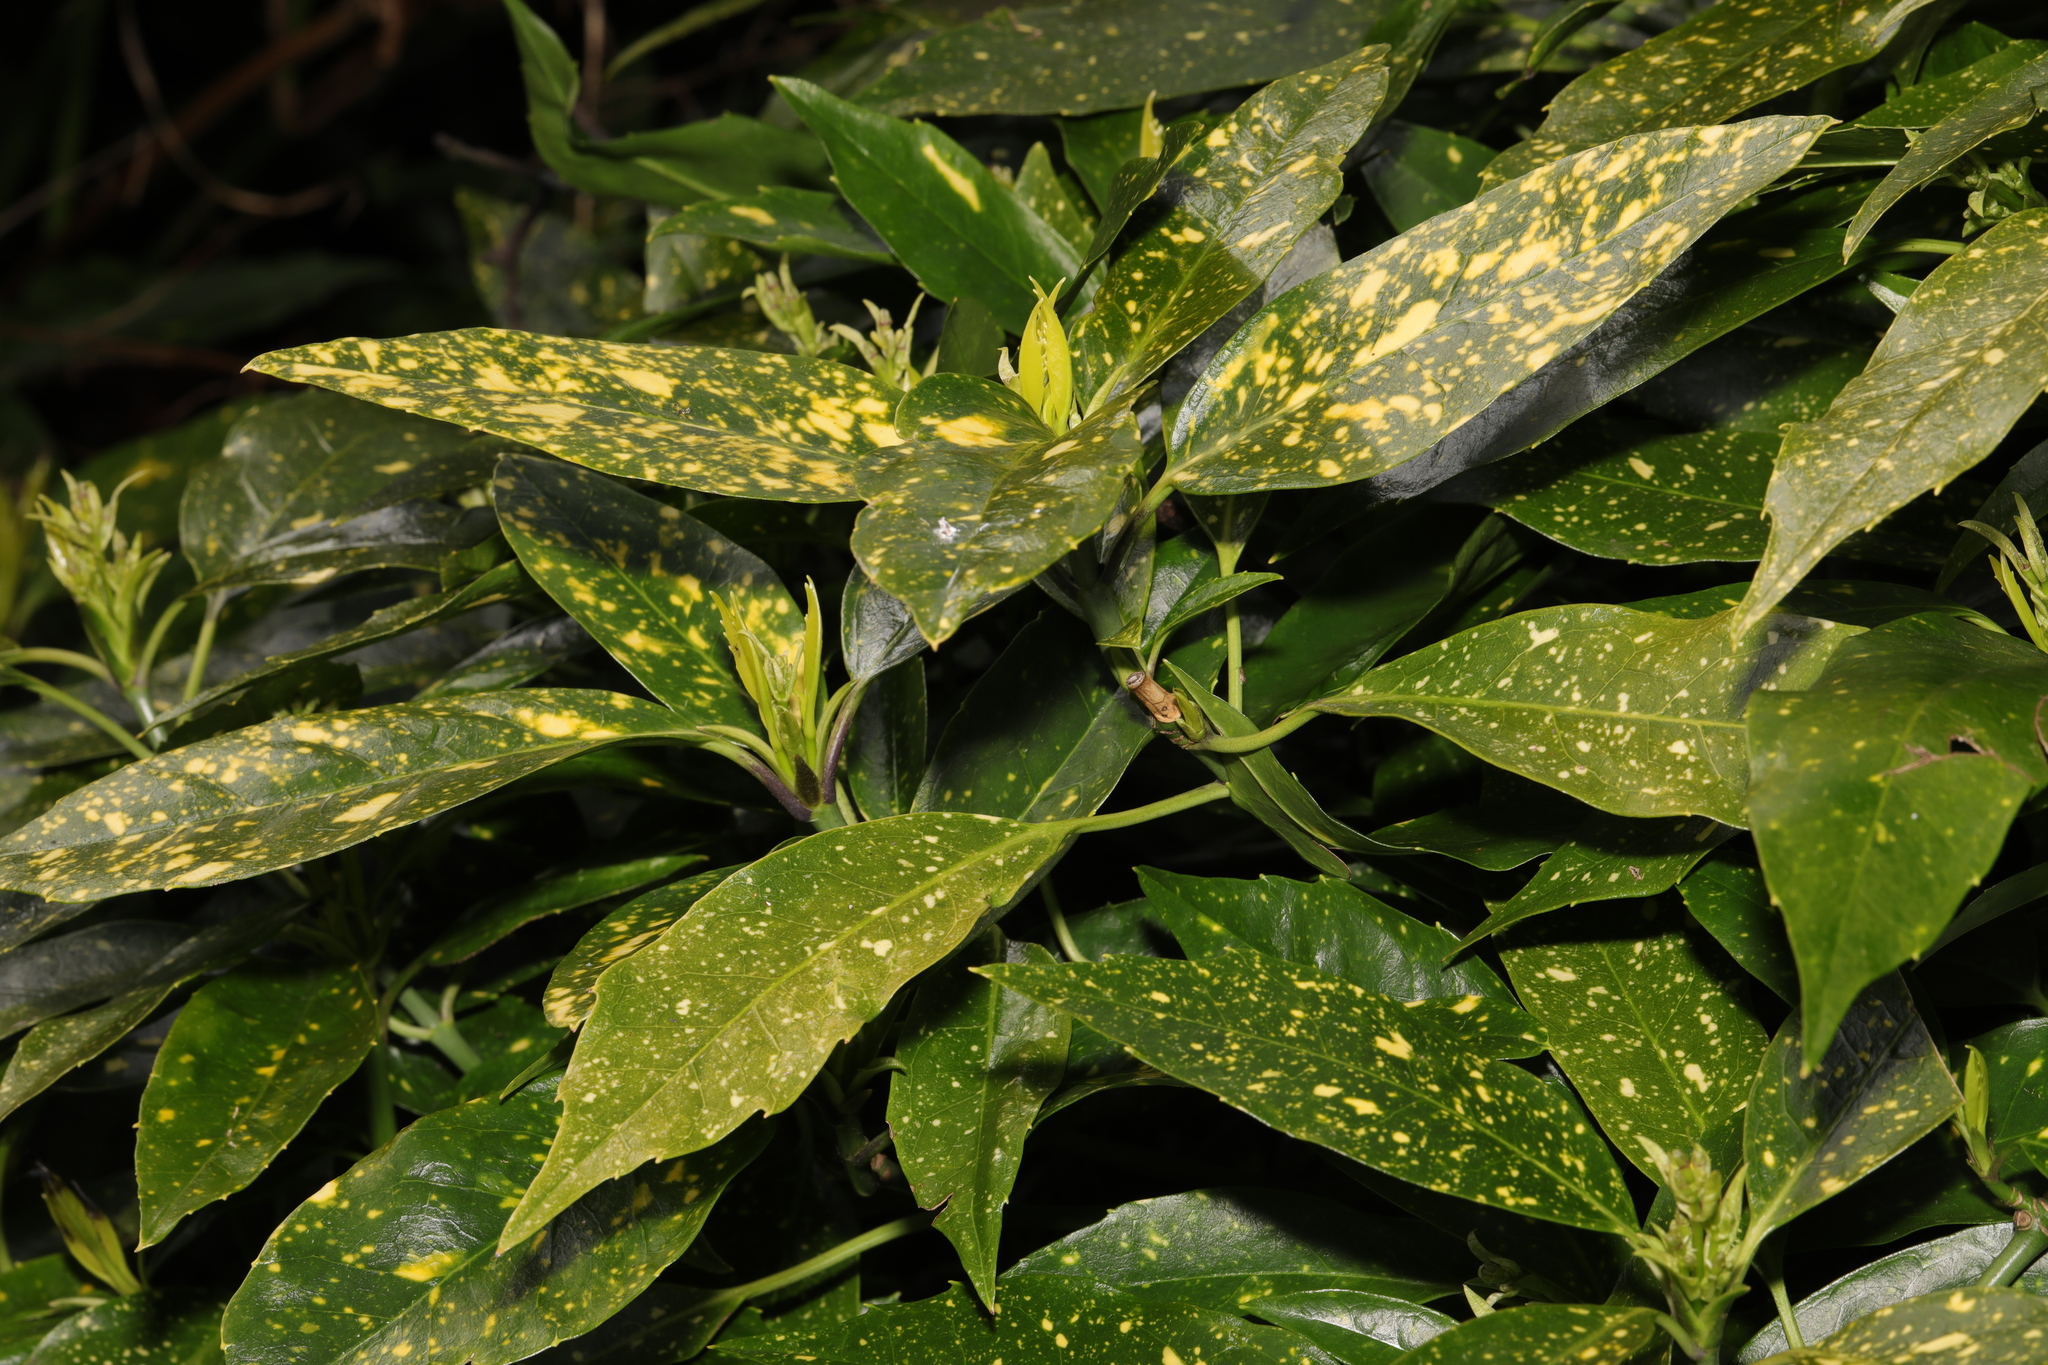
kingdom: Plantae
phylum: Tracheophyta
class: Magnoliopsida
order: Garryales
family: Garryaceae
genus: Aucuba
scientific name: Aucuba japonica
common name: Spotted-laurel
